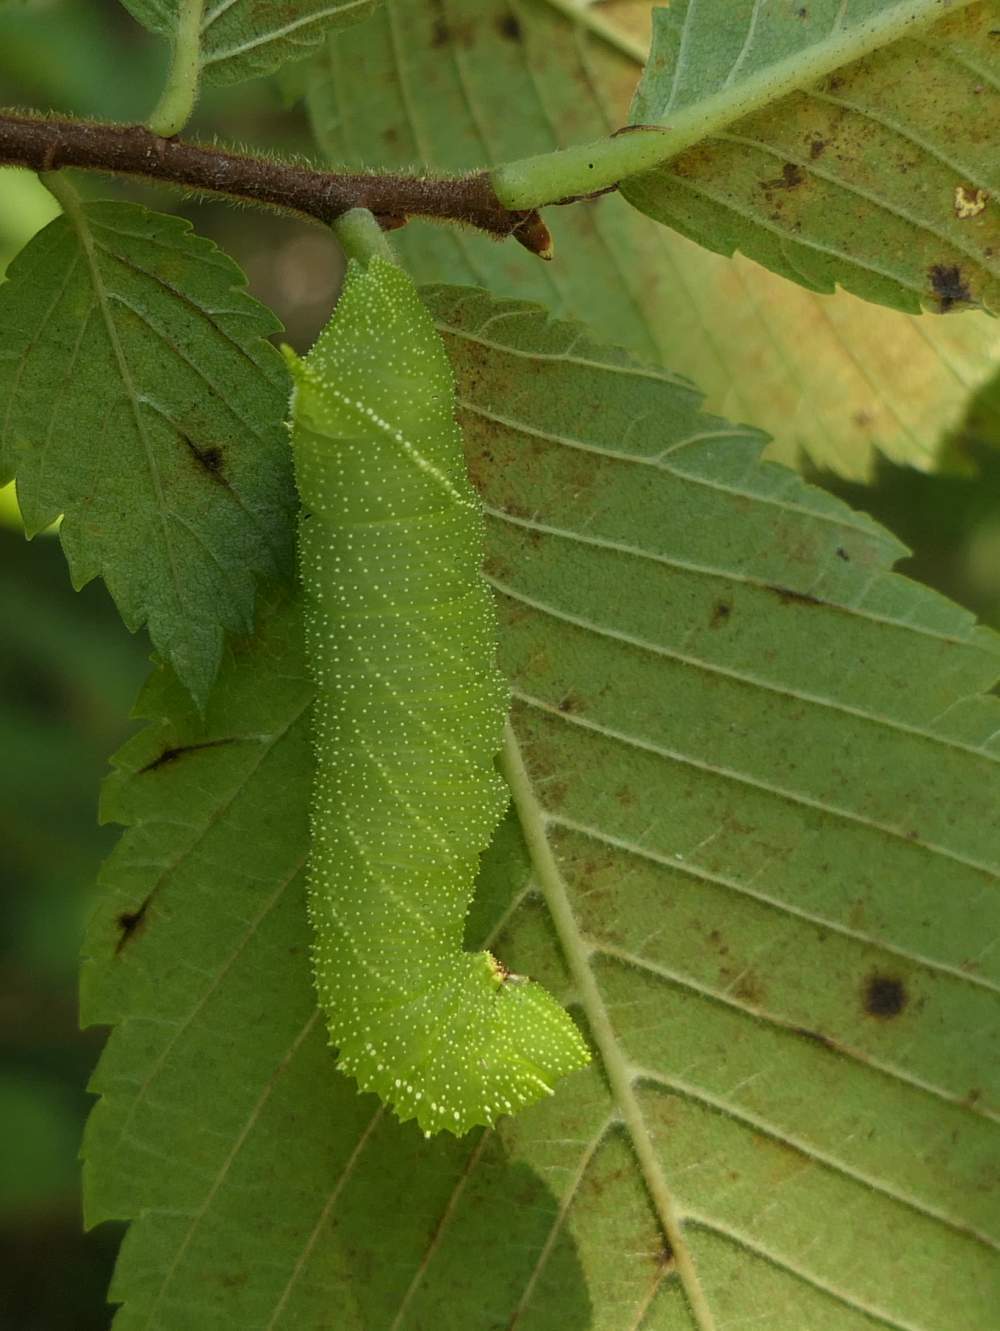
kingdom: Animalia
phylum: Arthropoda
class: Insecta
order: Lepidoptera
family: Sphingidae
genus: Paonias
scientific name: Paonias excaecata
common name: Blind-eyed sphinx
